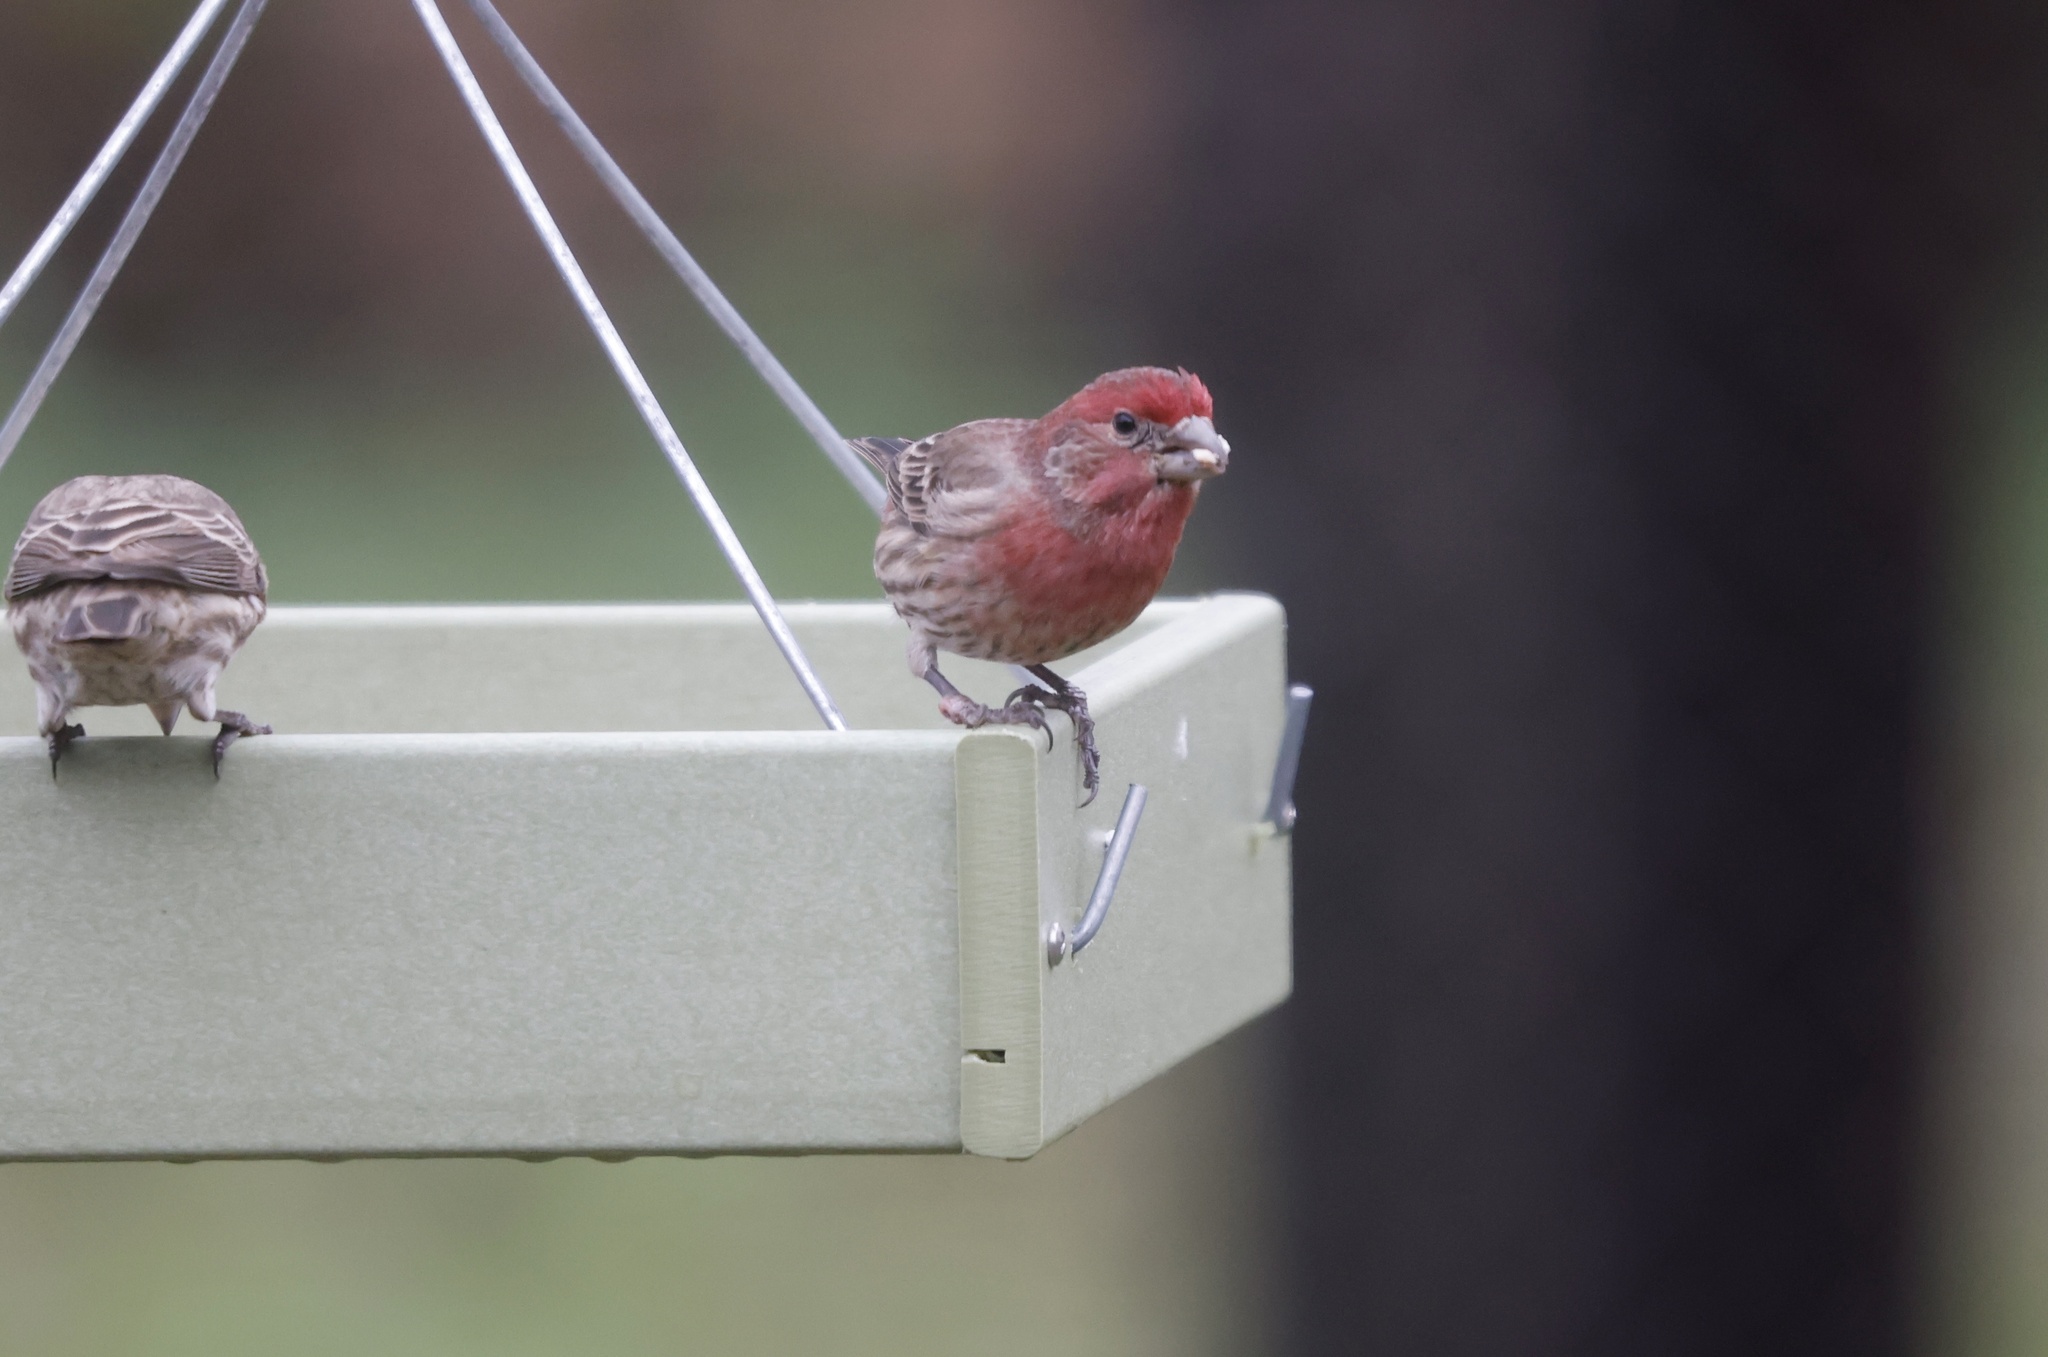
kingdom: Animalia
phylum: Chordata
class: Aves
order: Passeriformes
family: Fringillidae
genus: Haemorhous
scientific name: Haemorhous mexicanus
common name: House finch
